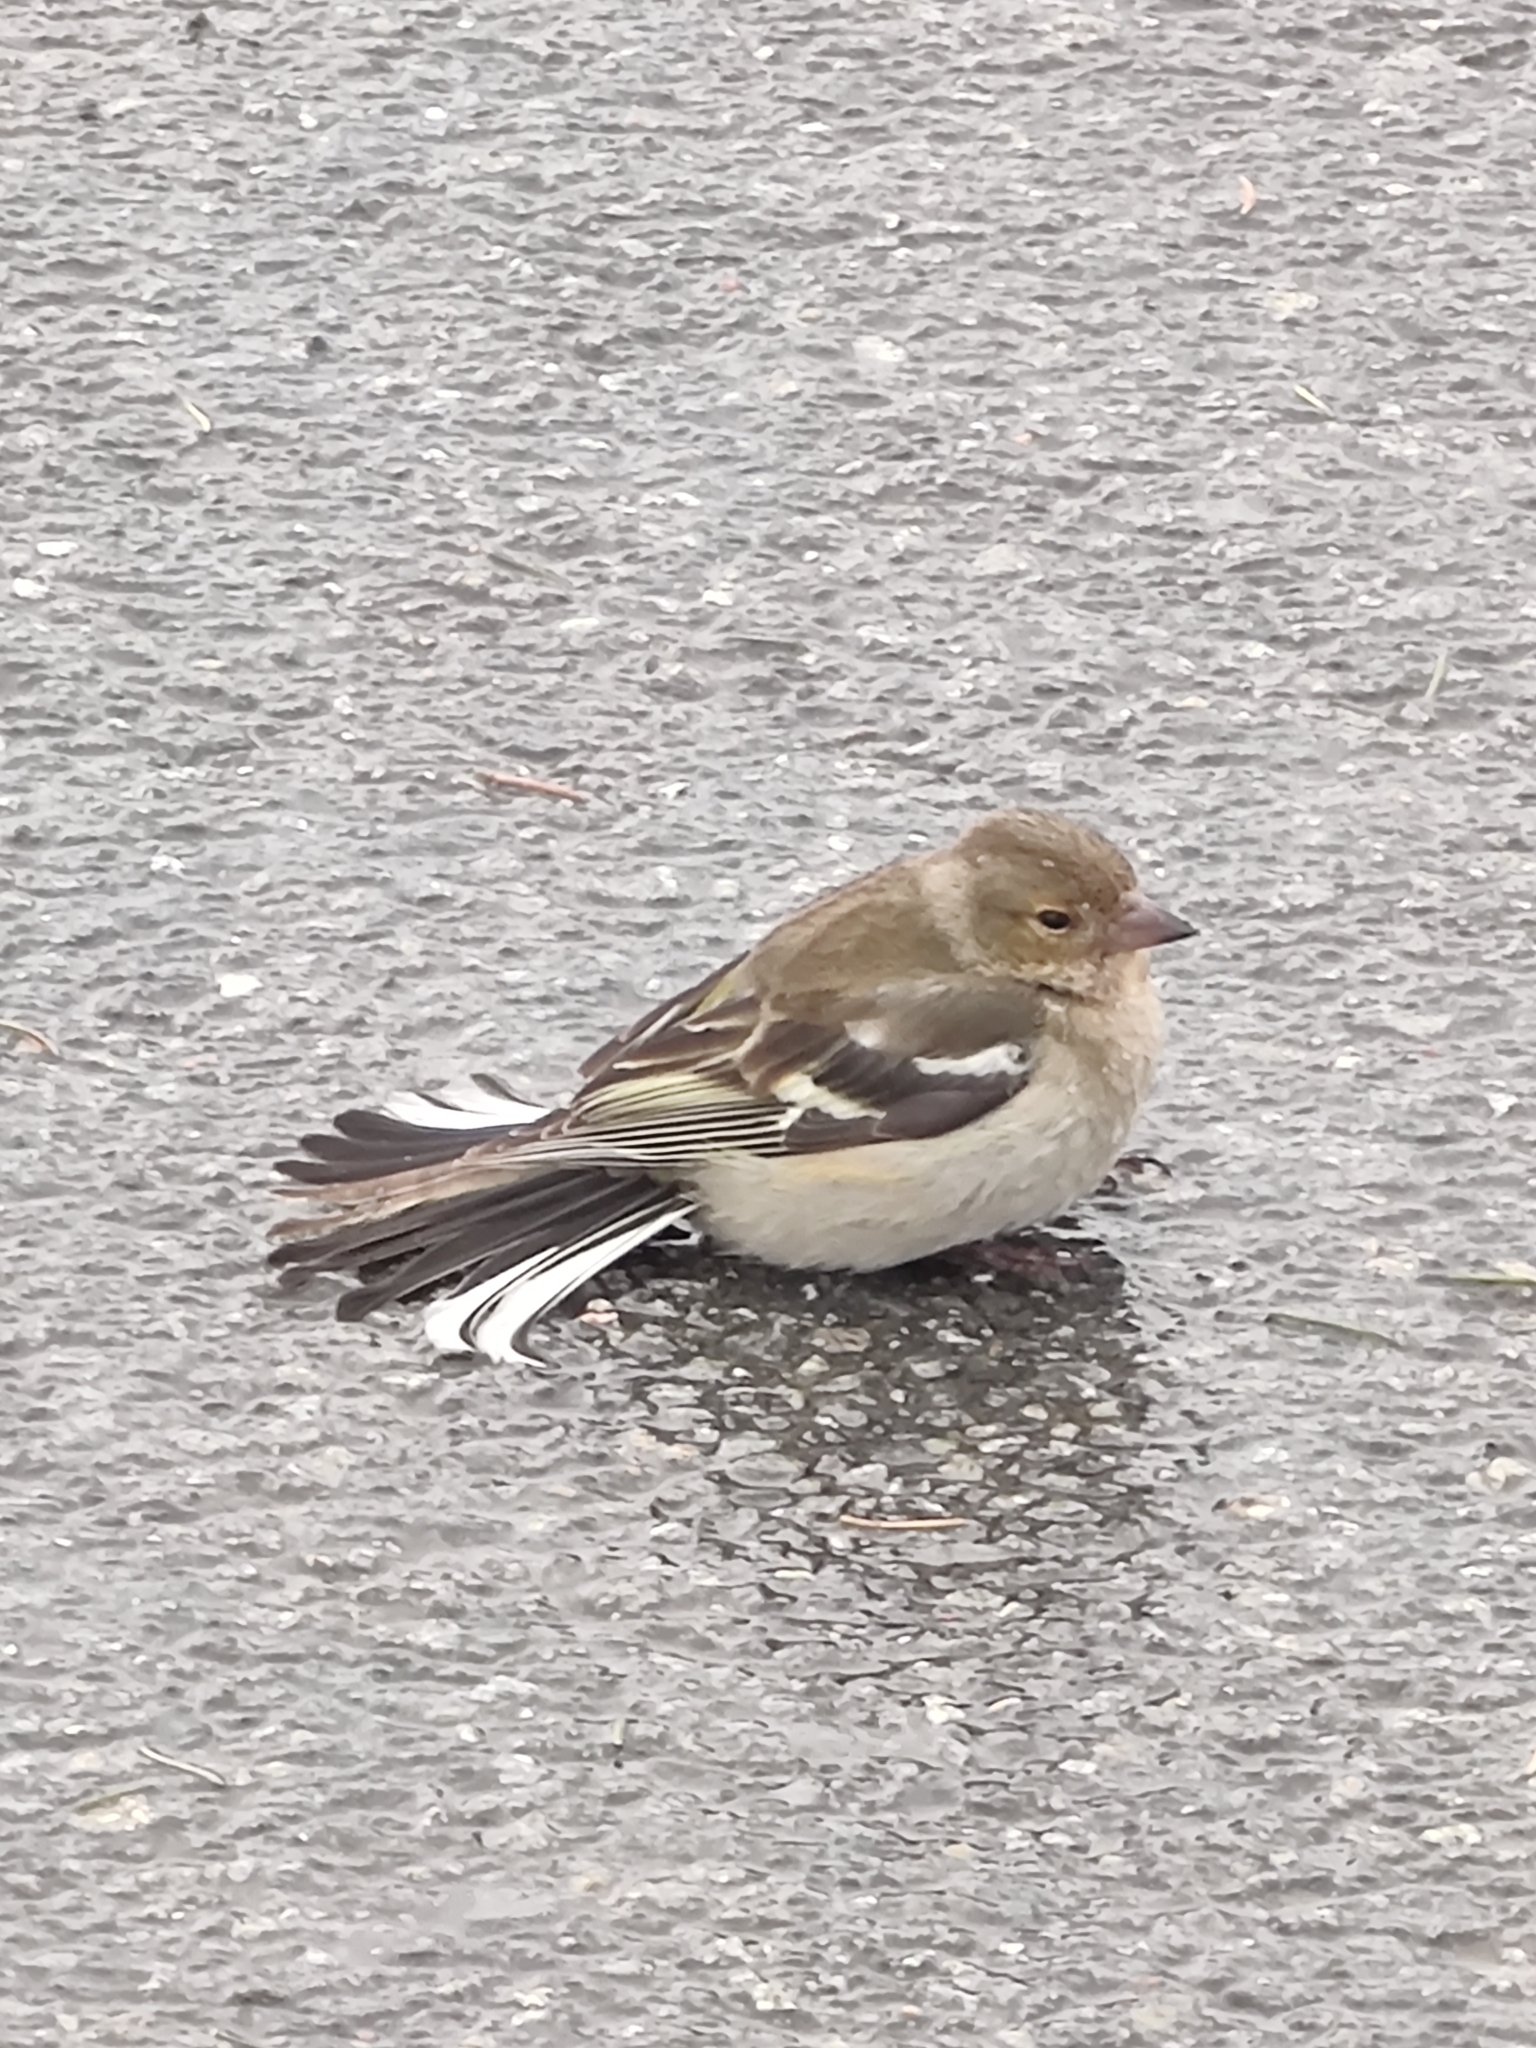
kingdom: Animalia
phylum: Chordata
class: Aves
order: Passeriformes
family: Fringillidae
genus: Fringilla
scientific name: Fringilla coelebs
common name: Common chaffinch
